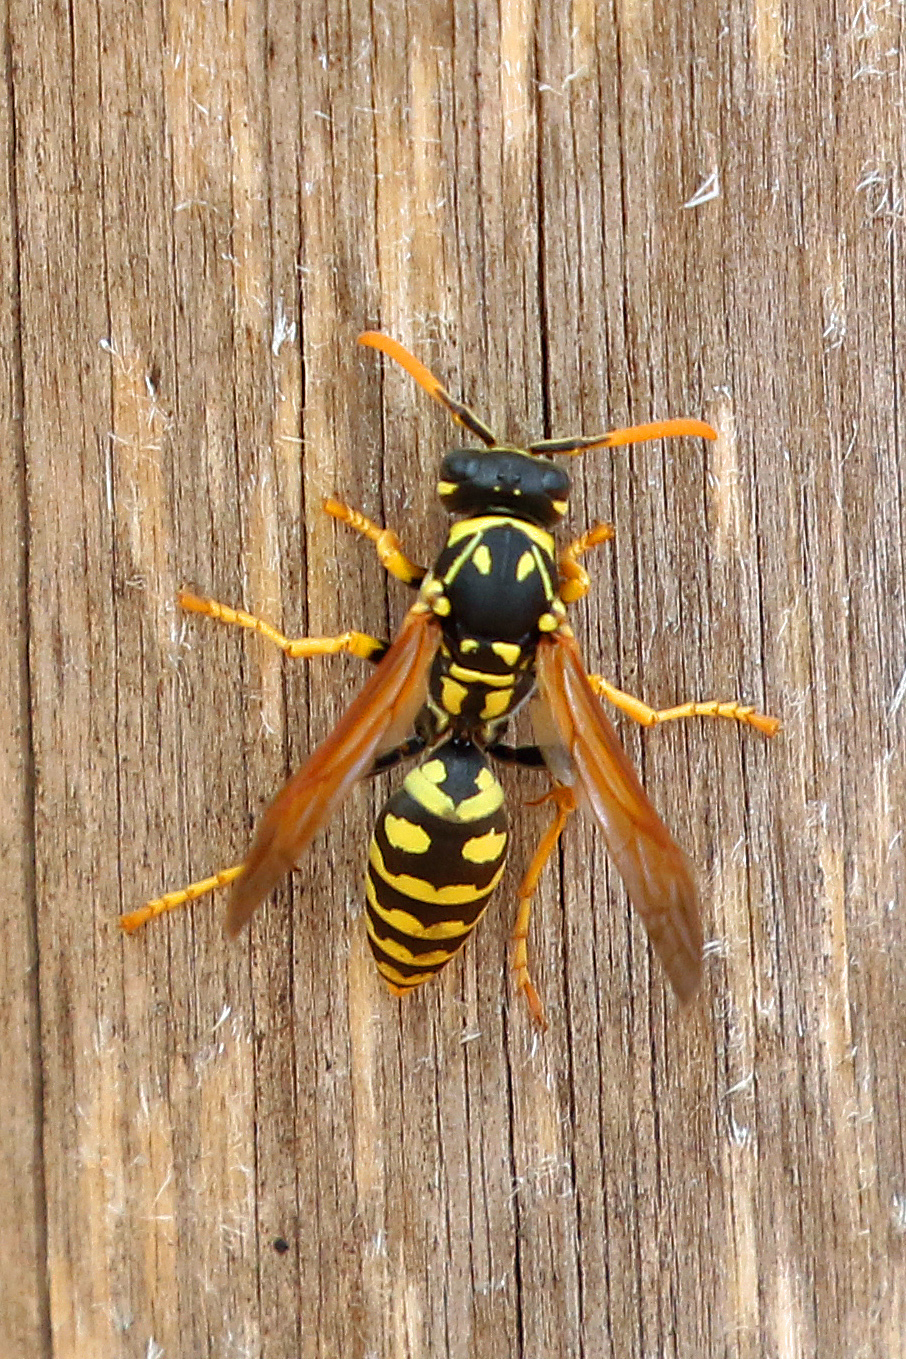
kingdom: Animalia
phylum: Arthropoda
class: Insecta
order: Hymenoptera
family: Eumenidae
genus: Polistes
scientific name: Polistes dominula
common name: Paper wasp
